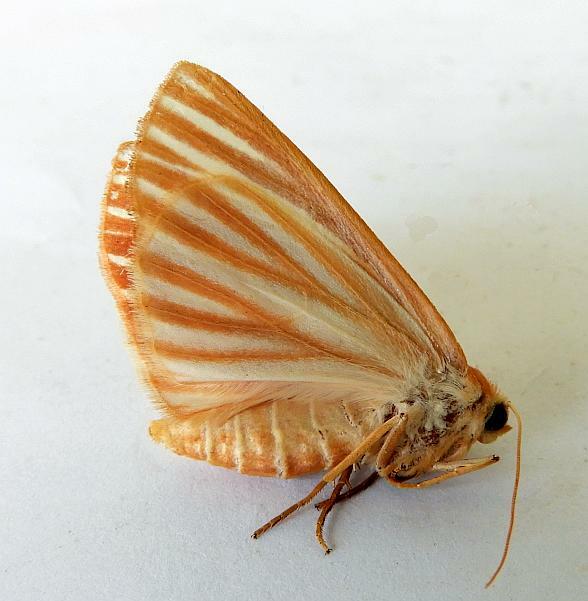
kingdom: Animalia
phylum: Arthropoda
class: Insecta
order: Lepidoptera
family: Geometridae
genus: Sabulodes
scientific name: Sabulodes niveostriata
